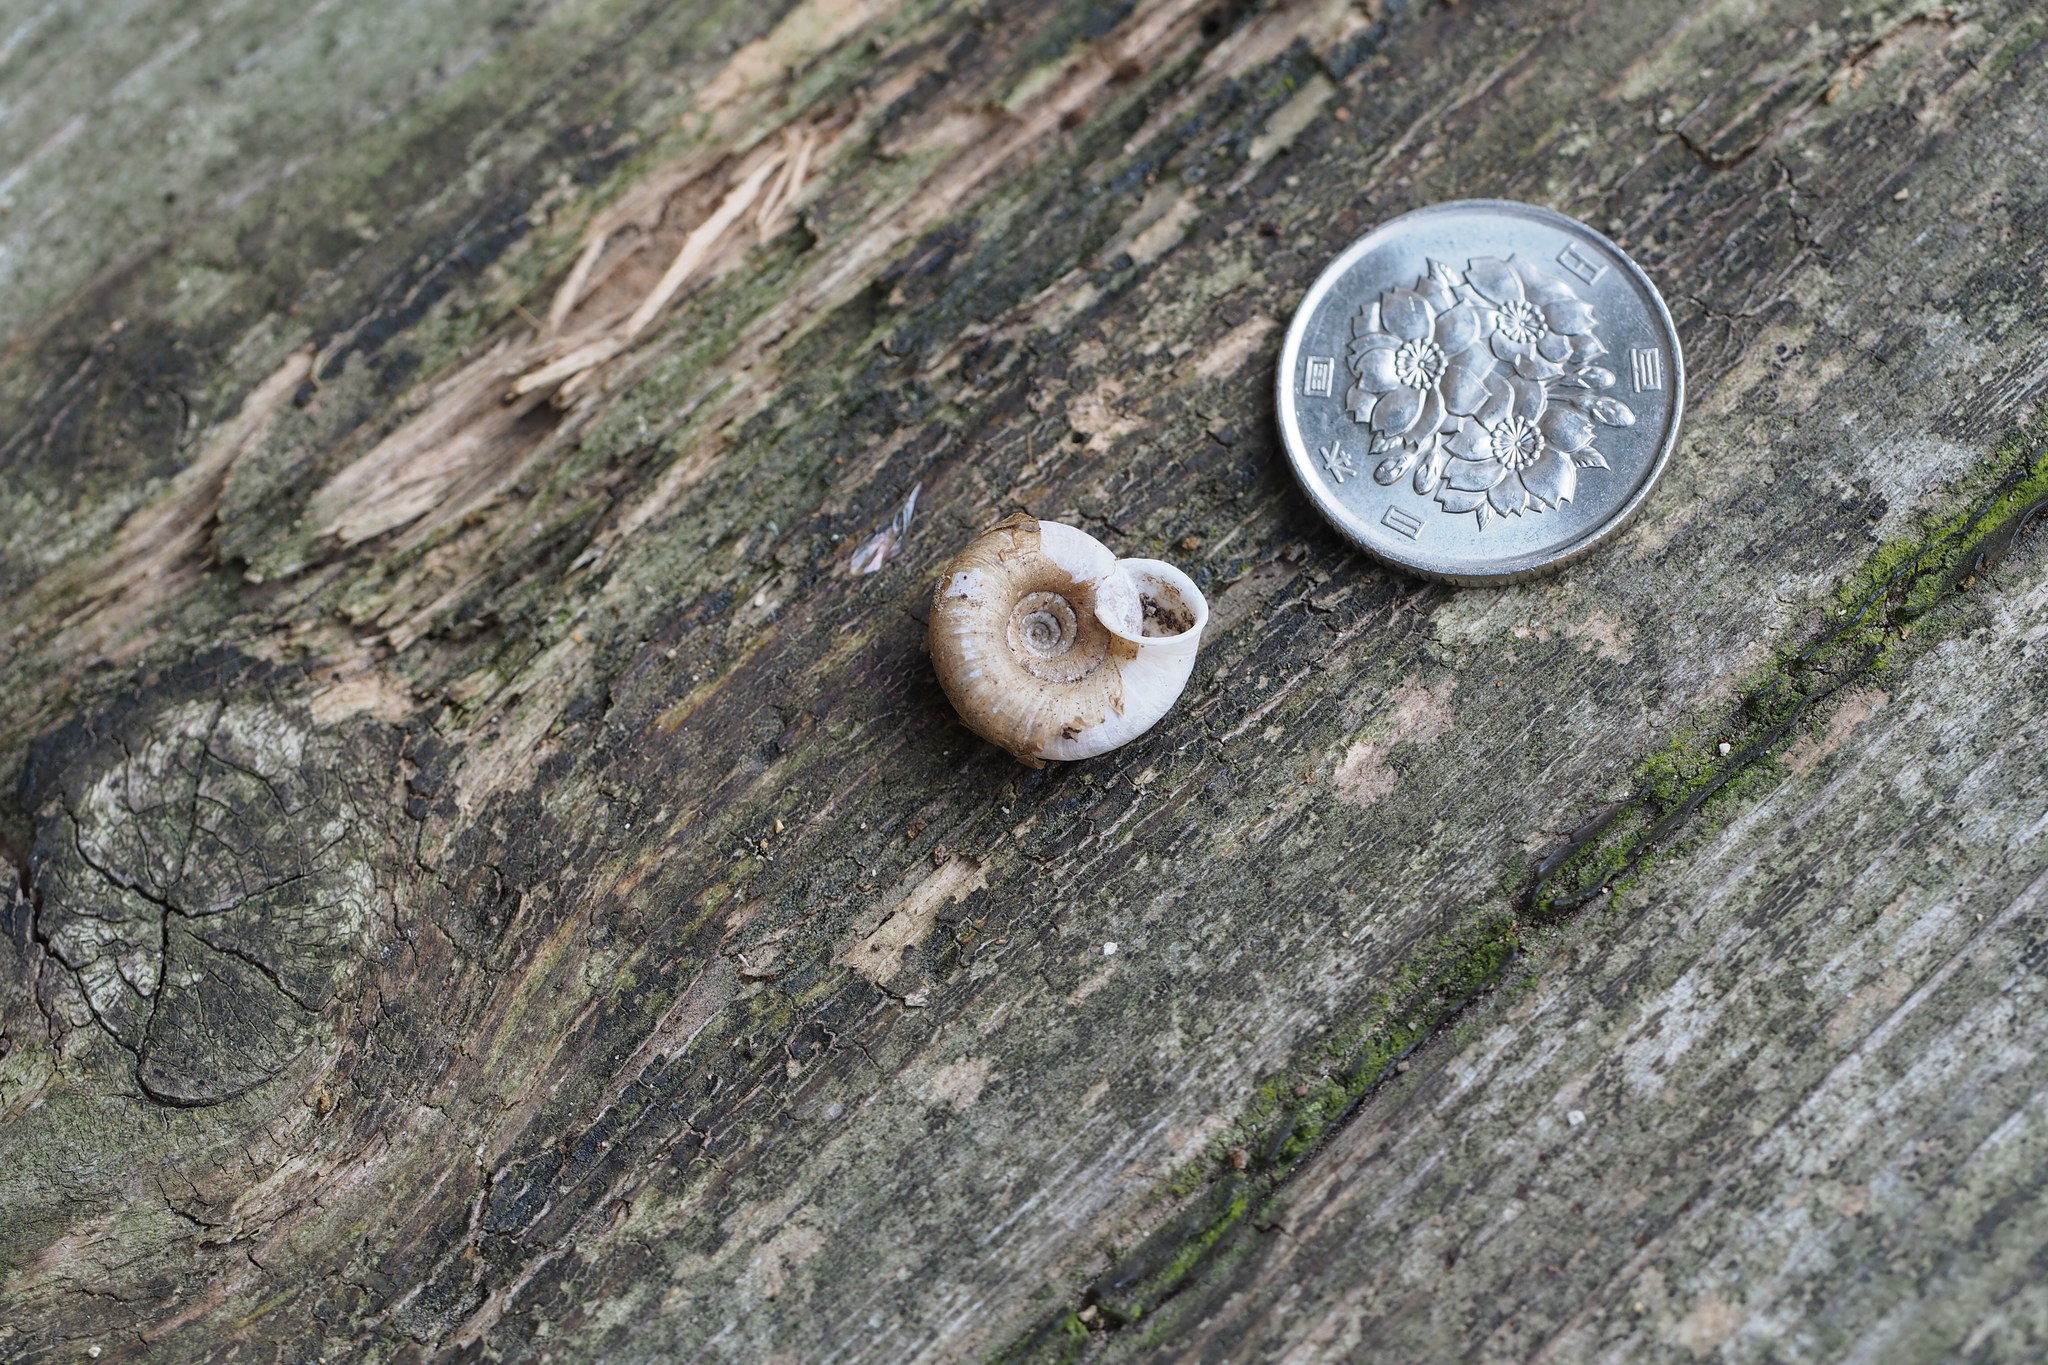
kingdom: Animalia
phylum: Mollusca
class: Gastropoda
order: Stylommatophora
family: Camaenidae
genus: Aegista
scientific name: Aegista kobensis
